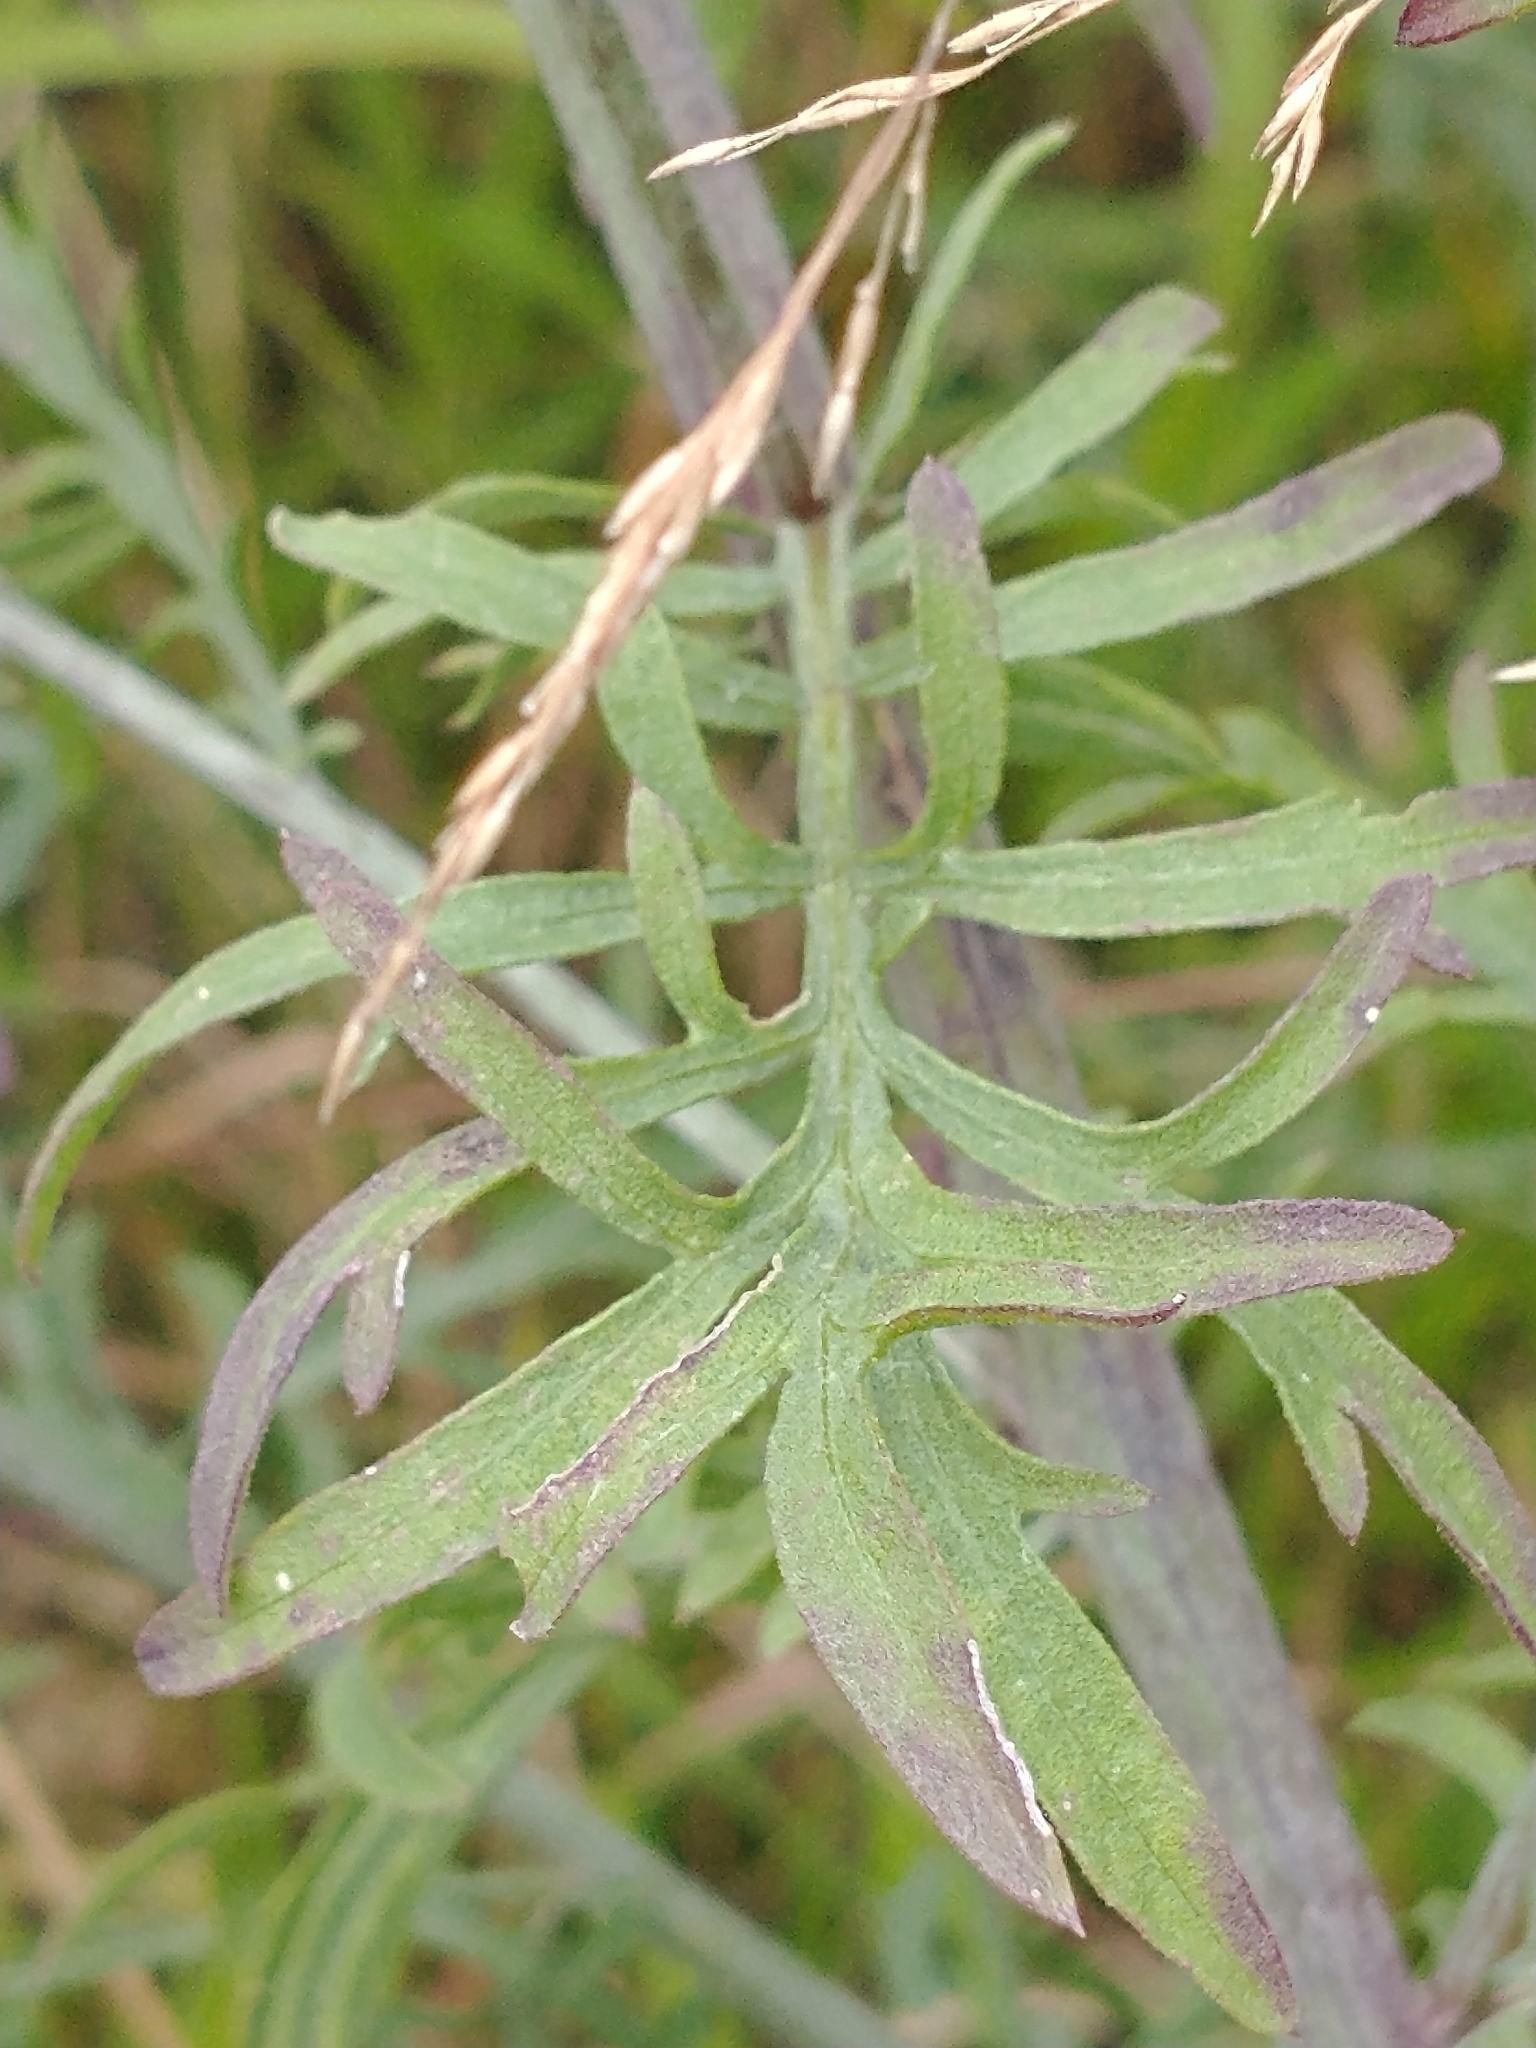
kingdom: Plantae
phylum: Tracheophyta
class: Magnoliopsida
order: Asterales
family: Asteraceae
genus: Centaurea
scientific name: Centaurea stoebe
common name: Spotted knapweed
